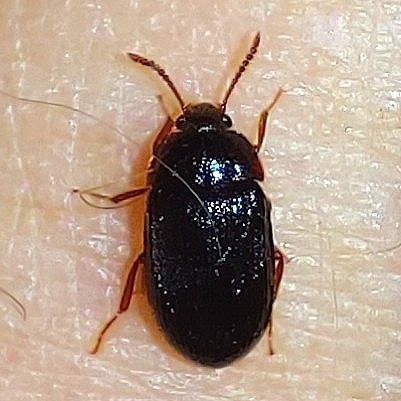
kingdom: Animalia
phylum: Arthropoda
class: Insecta
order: Coleoptera
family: Mycetophagidae
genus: Mycetophagus
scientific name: Mycetophagus ater
